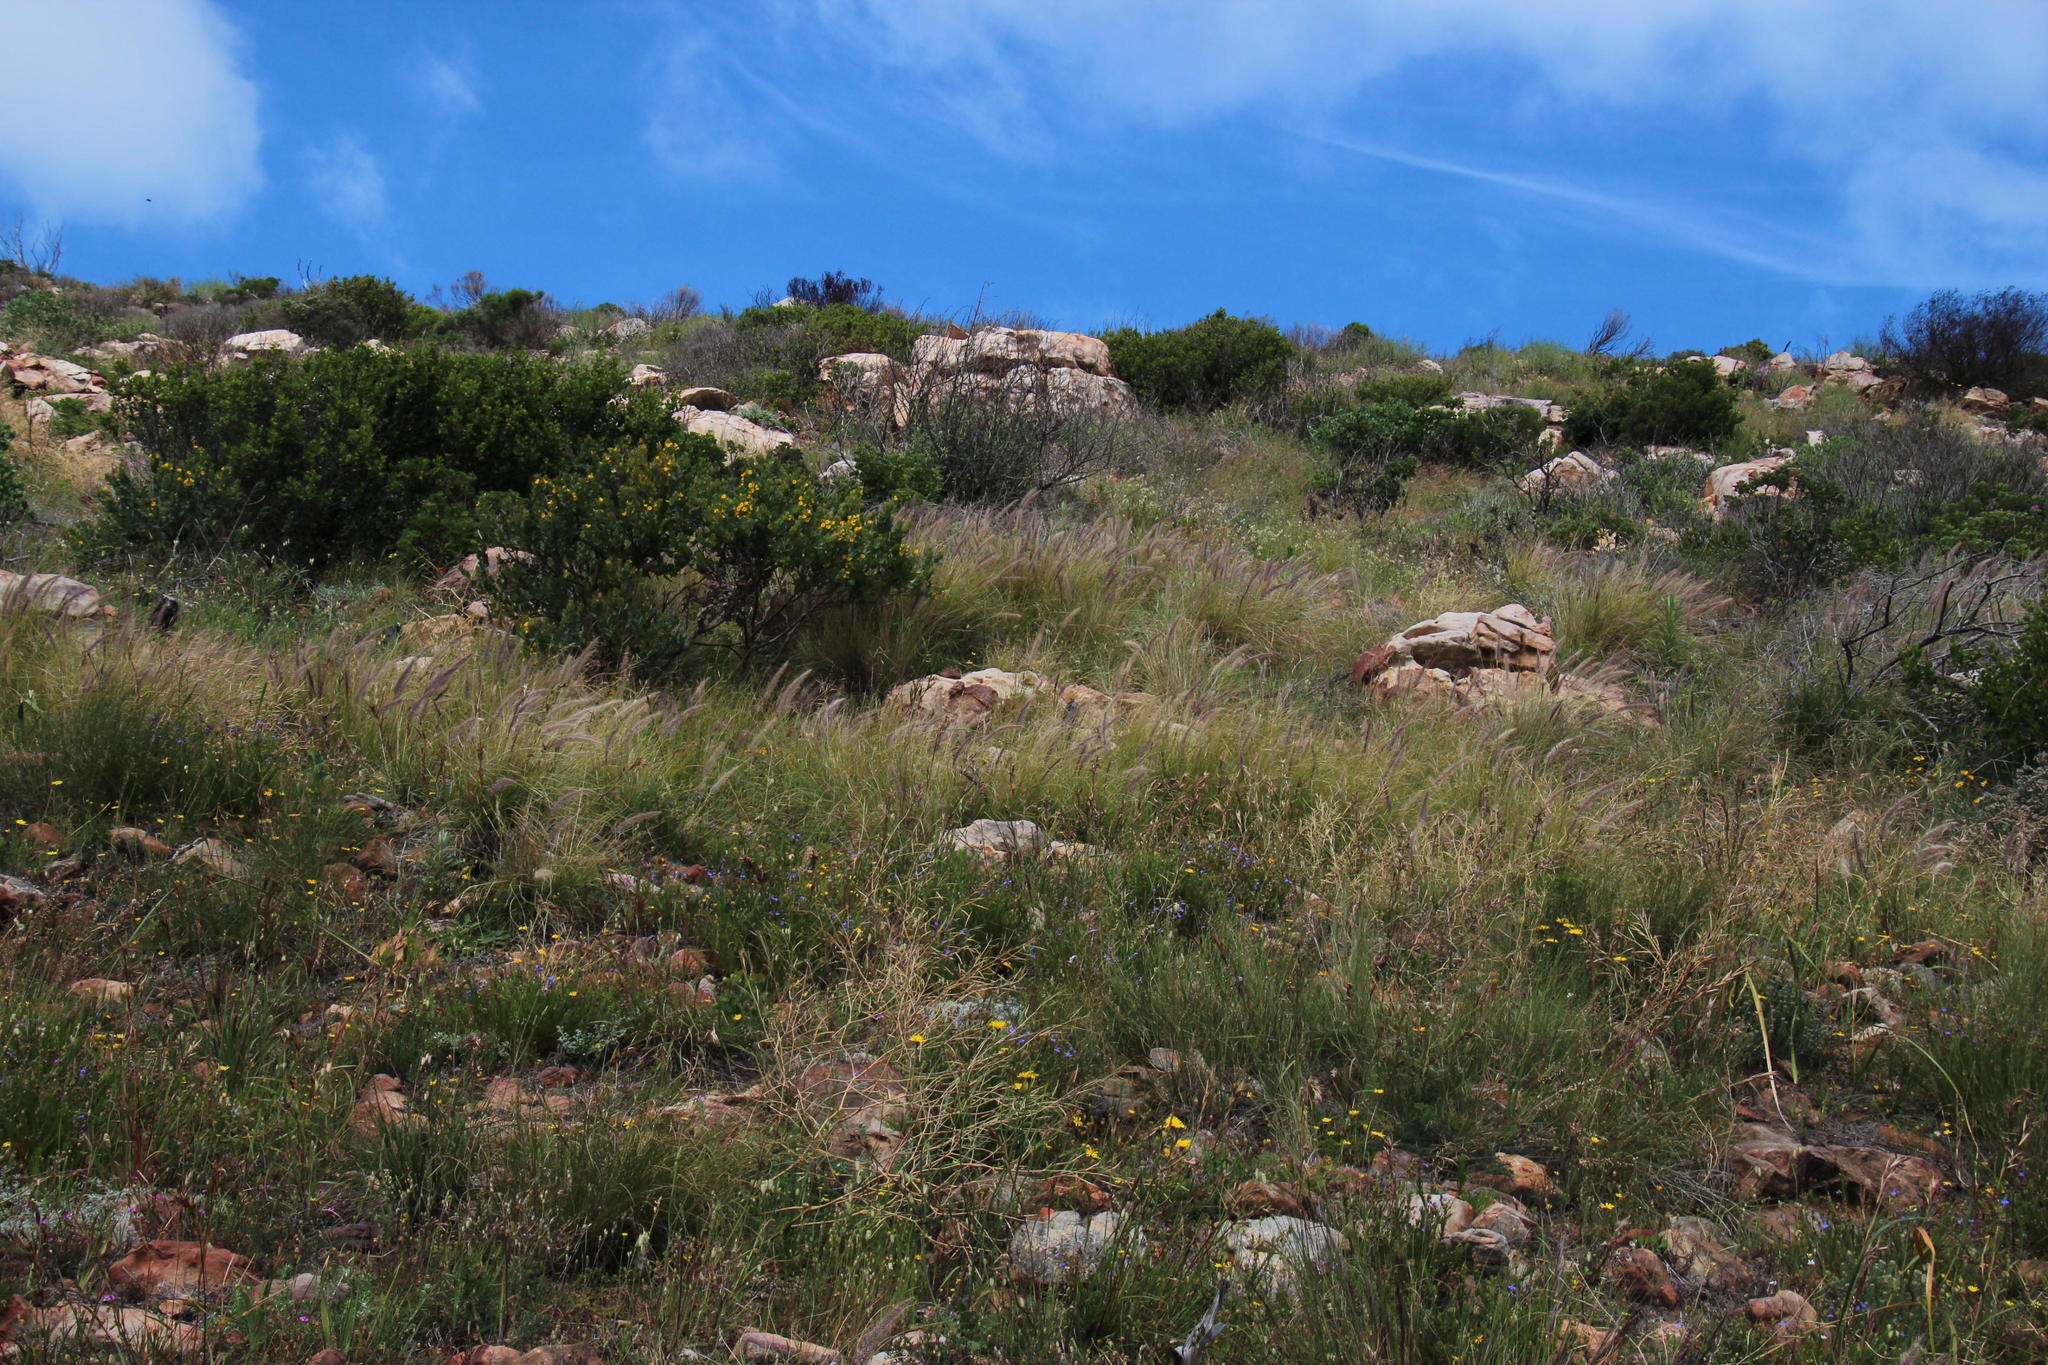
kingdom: Plantae
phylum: Tracheophyta
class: Liliopsida
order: Poales
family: Poaceae
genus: Cenchrus
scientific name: Cenchrus setaceus
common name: Crimson fountaingrass
